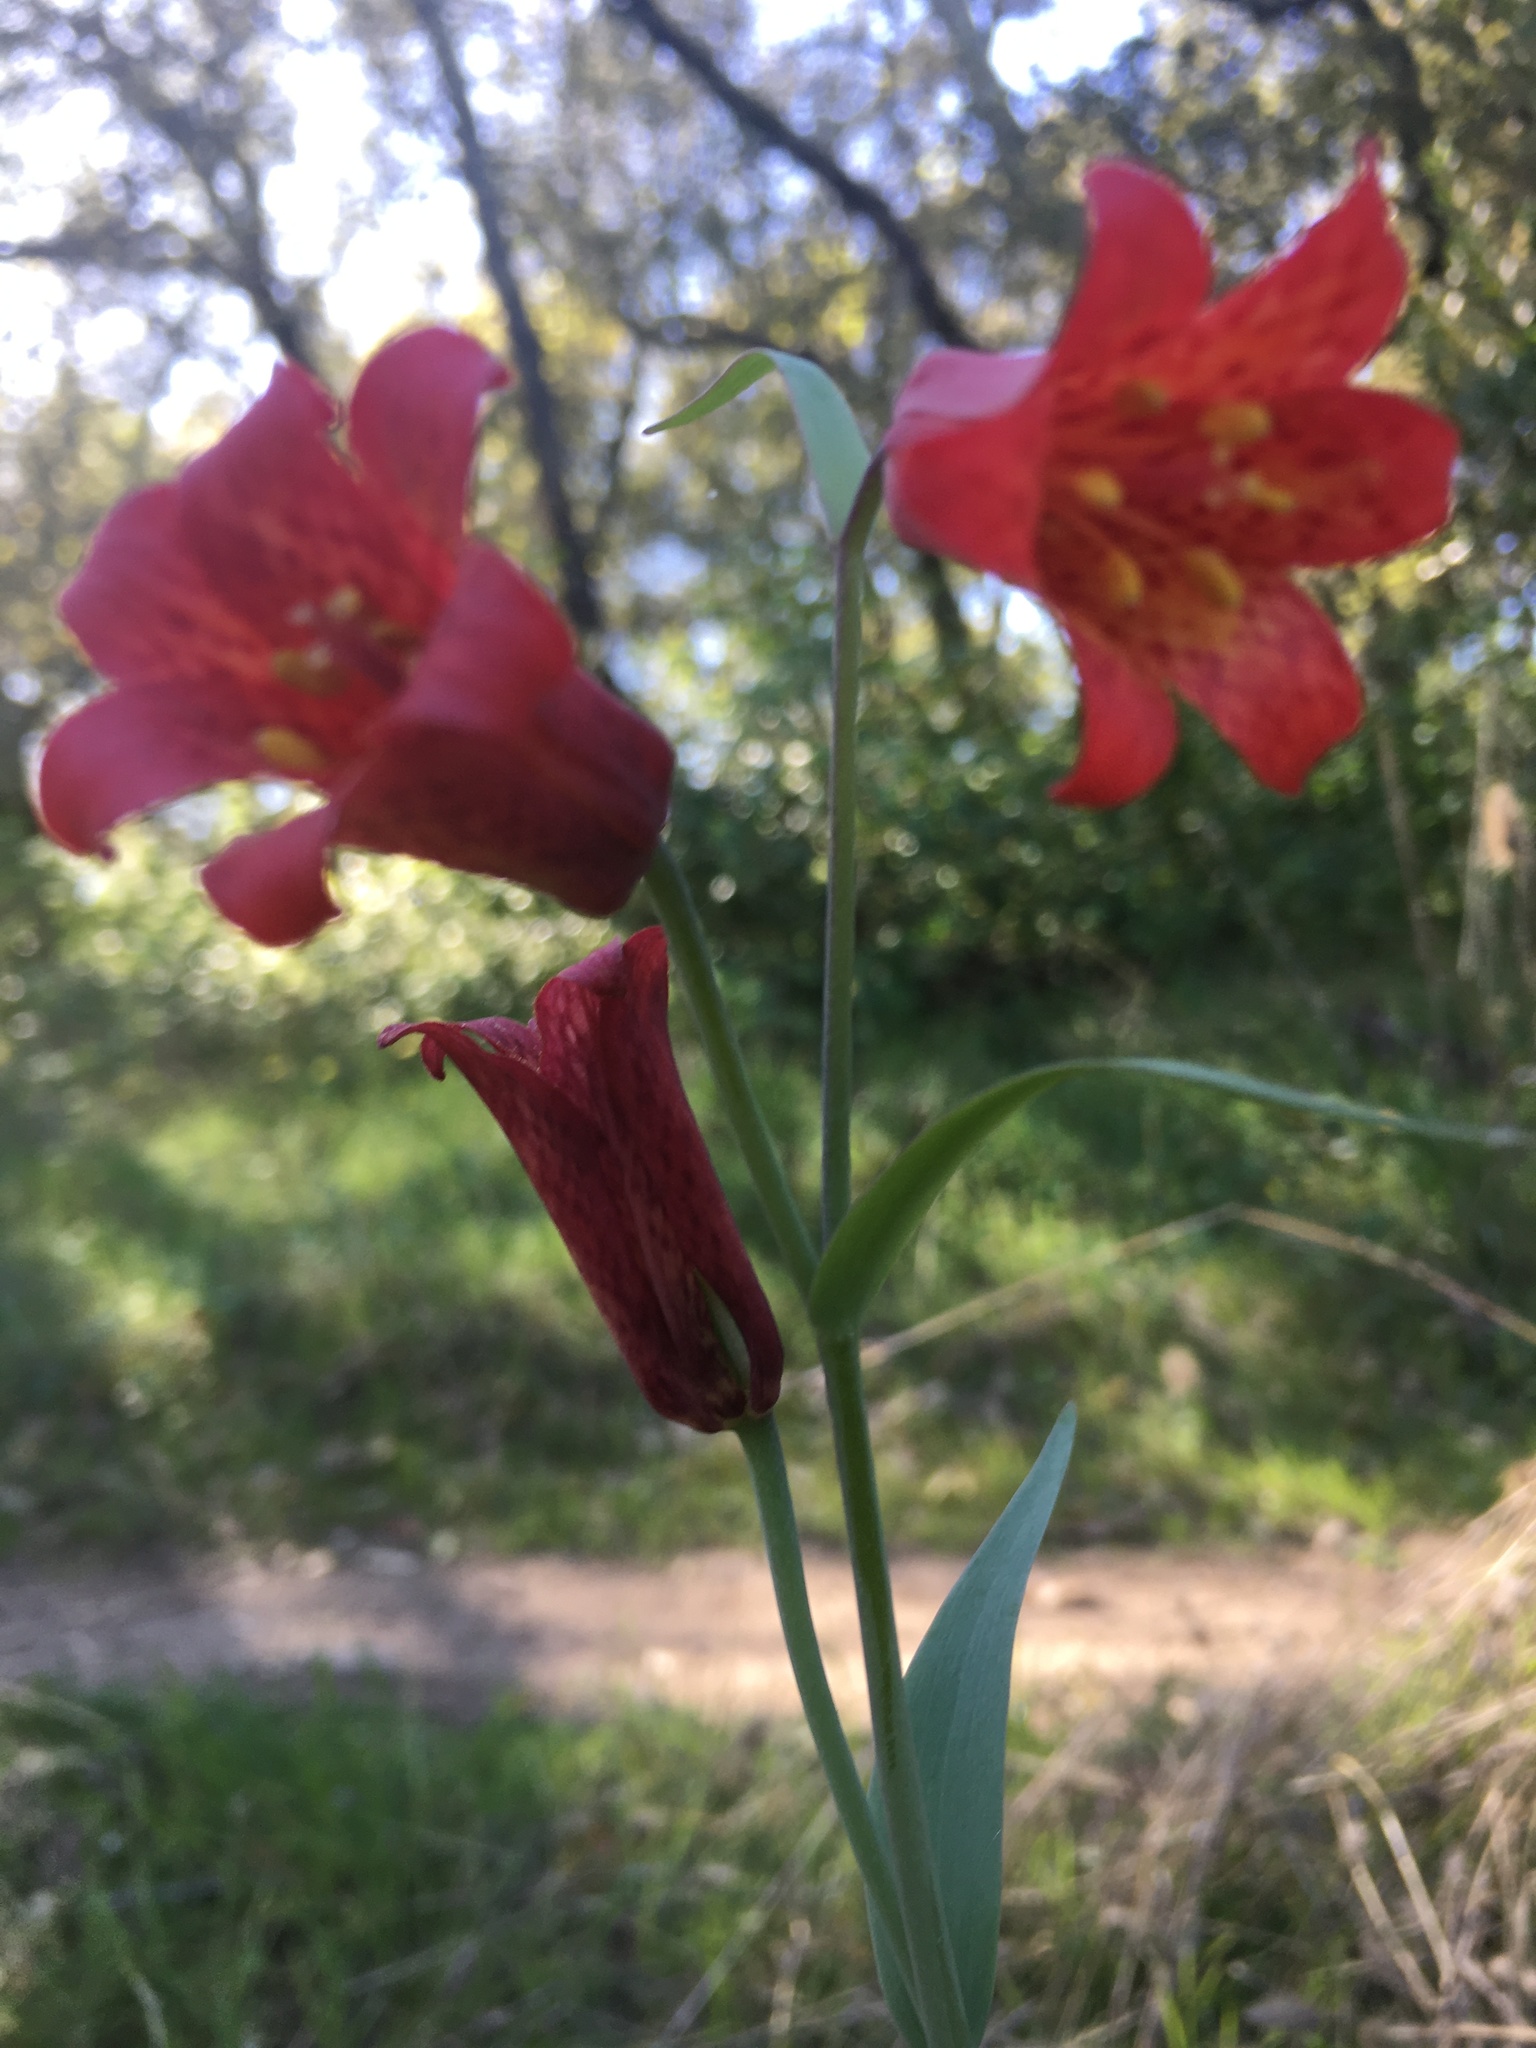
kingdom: Plantae
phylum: Tracheophyta
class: Liliopsida
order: Liliales
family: Liliaceae
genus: Fritillaria
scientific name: Fritillaria recurva
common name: Scarlet fritillary
